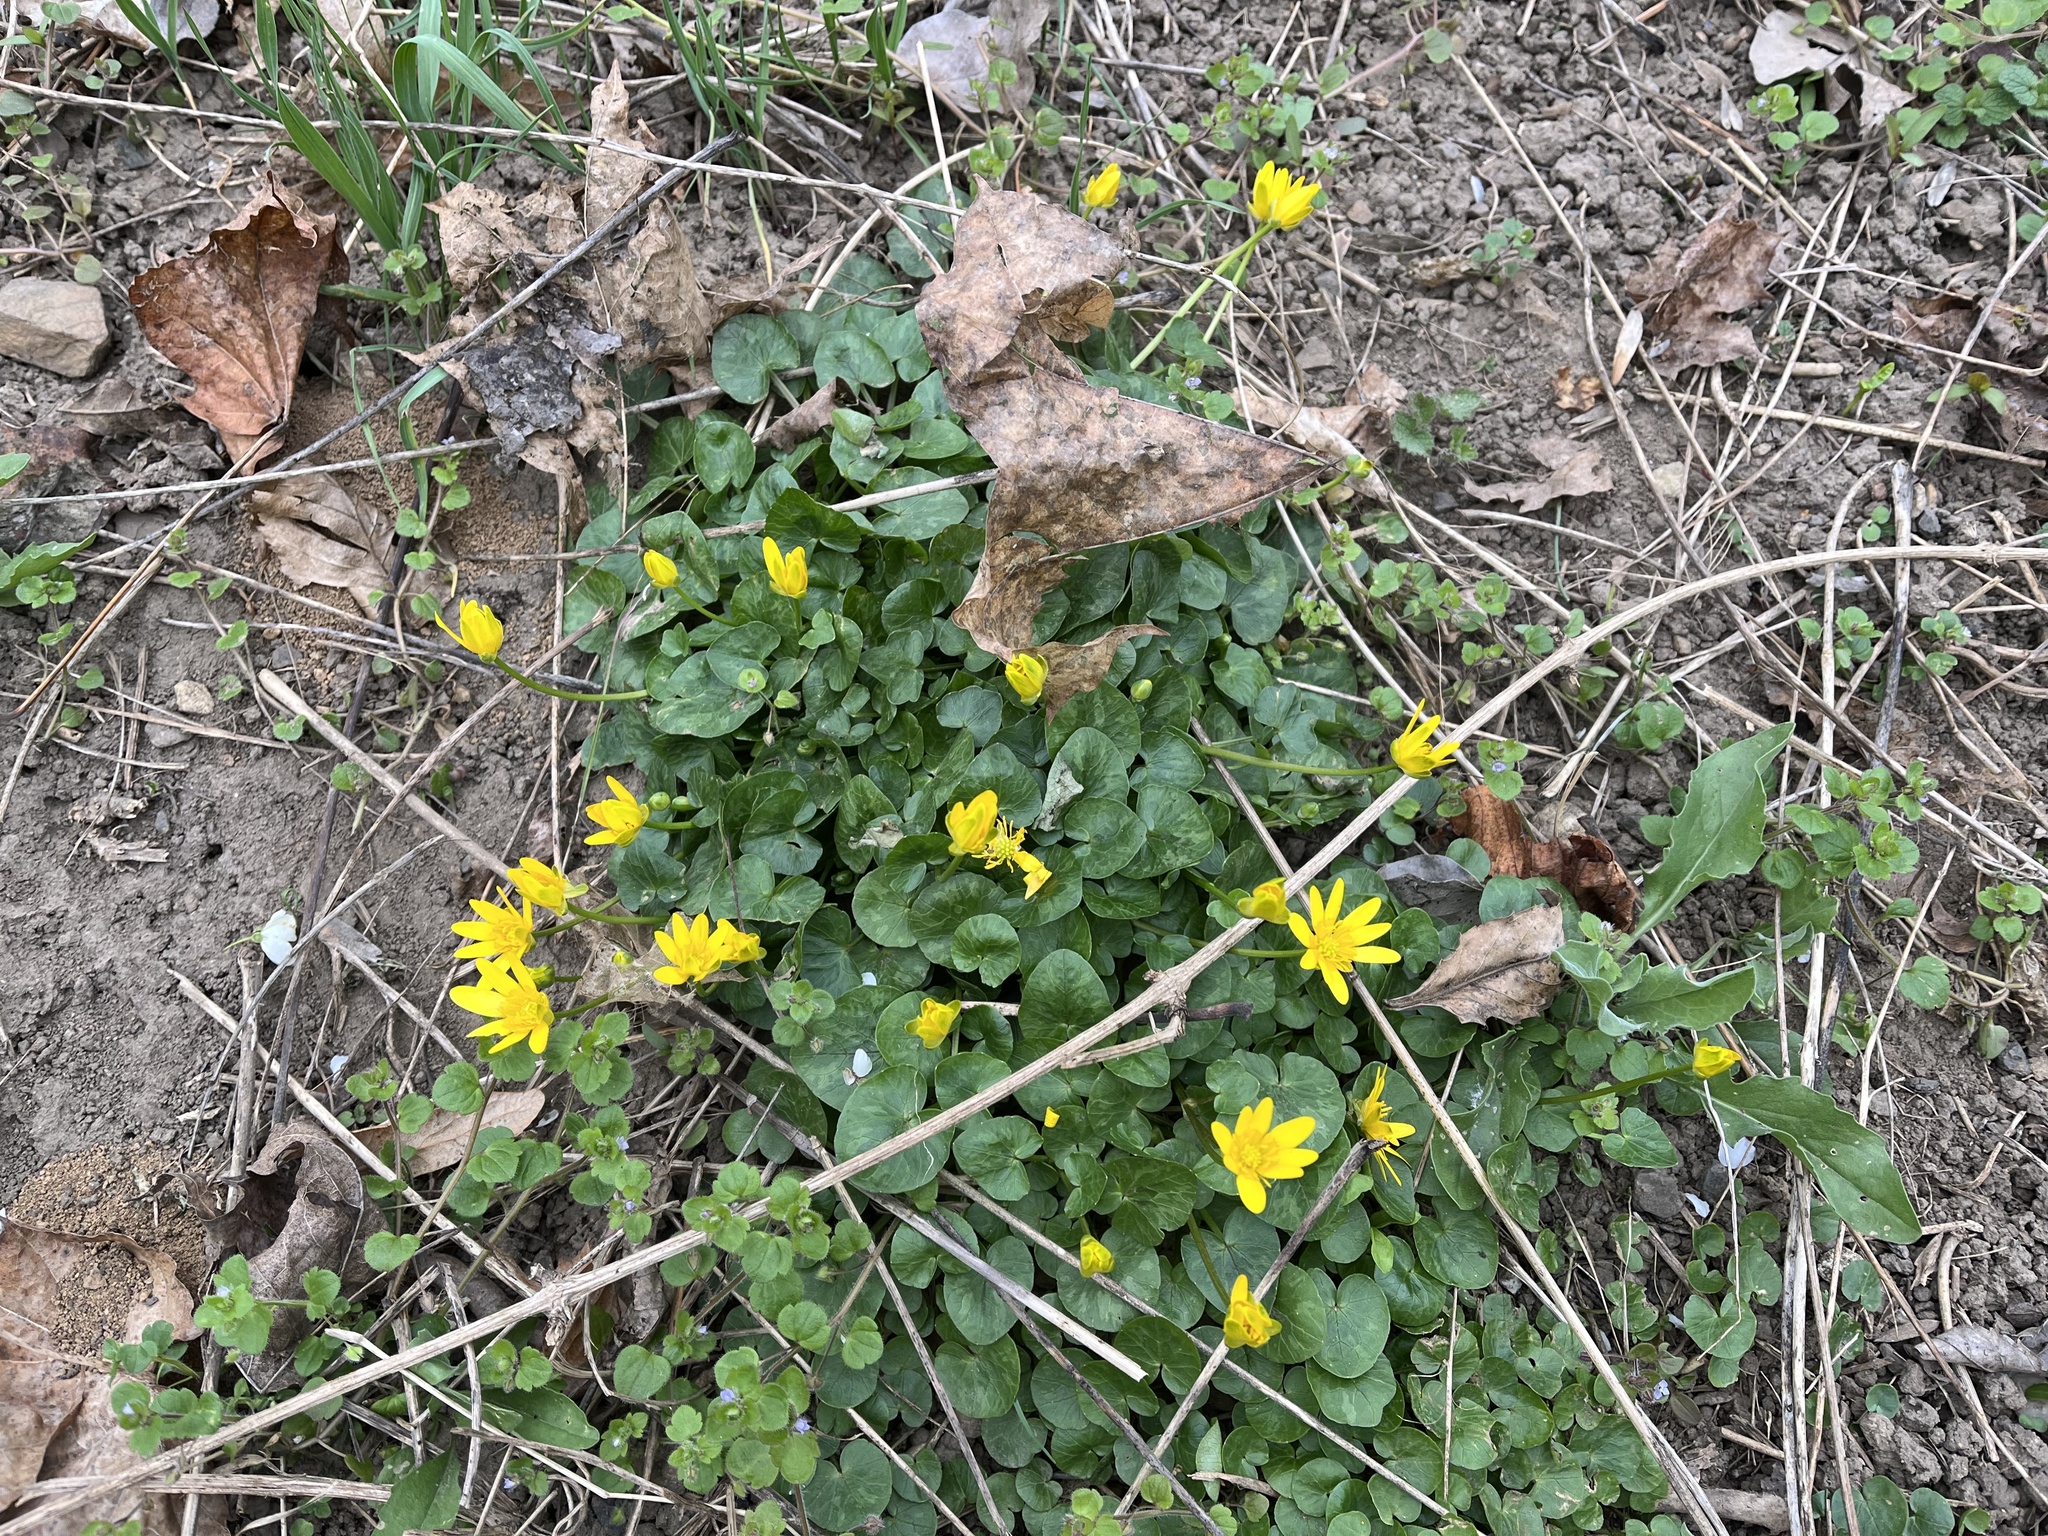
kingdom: Plantae
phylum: Tracheophyta
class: Magnoliopsida
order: Ranunculales
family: Ranunculaceae
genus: Ficaria
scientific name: Ficaria verna
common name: Lesser celandine
